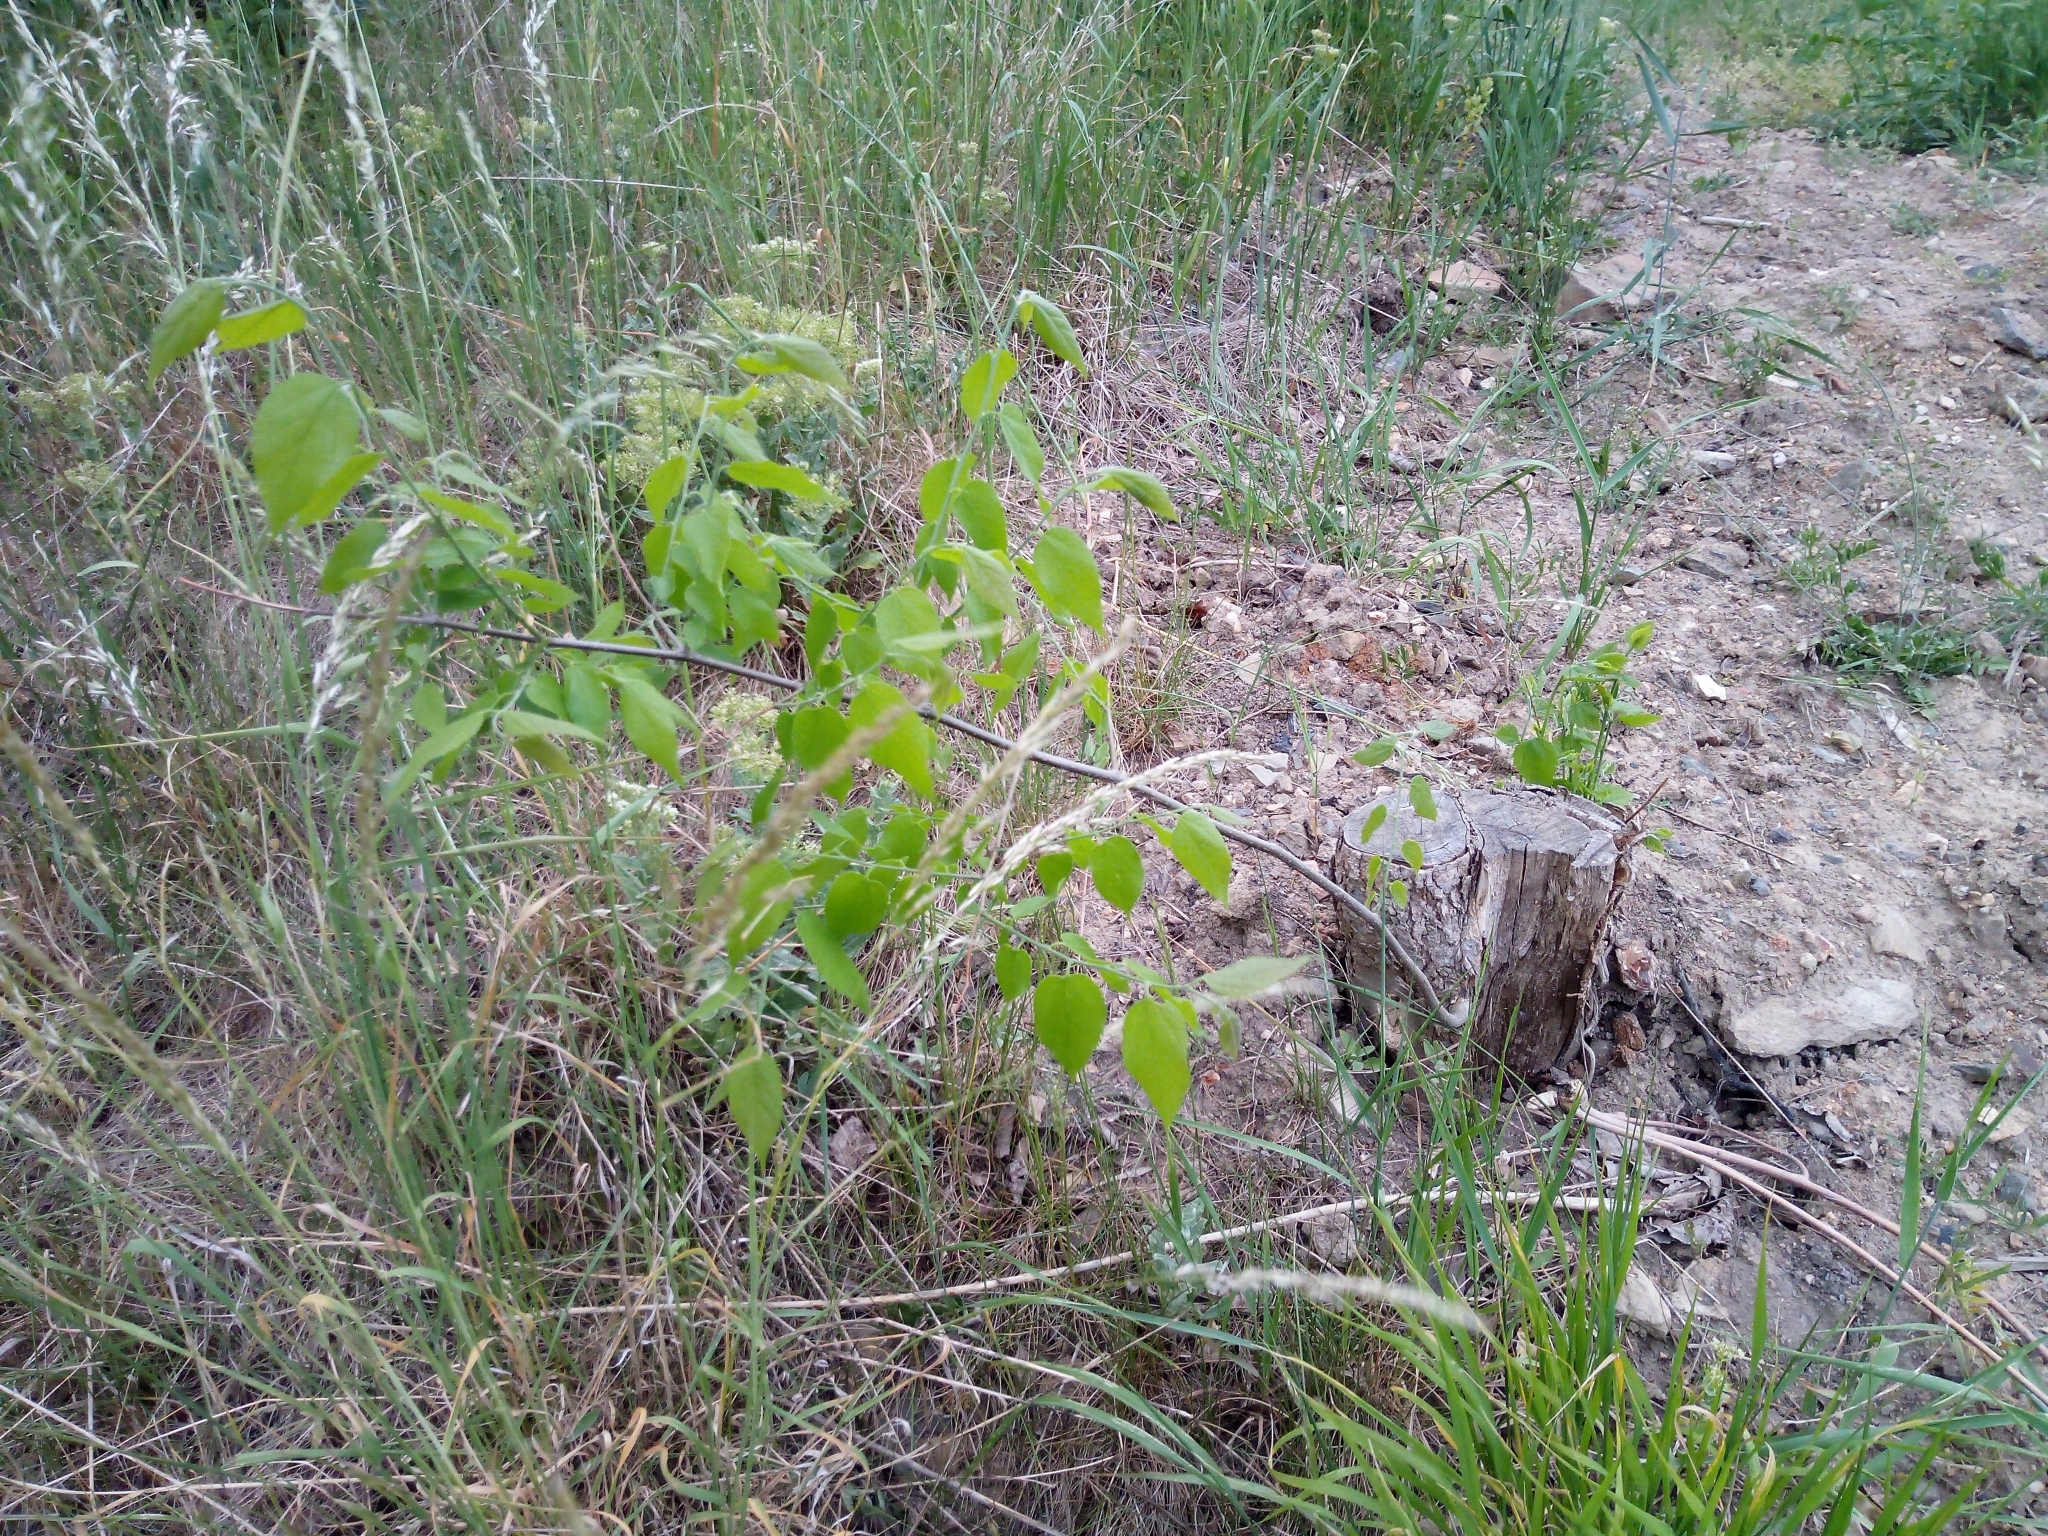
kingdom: Plantae
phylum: Tracheophyta
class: Magnoliopsida
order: Sapindales
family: Sapindaceae
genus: Acer
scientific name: Acer negundo
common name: Ashleaf maple
